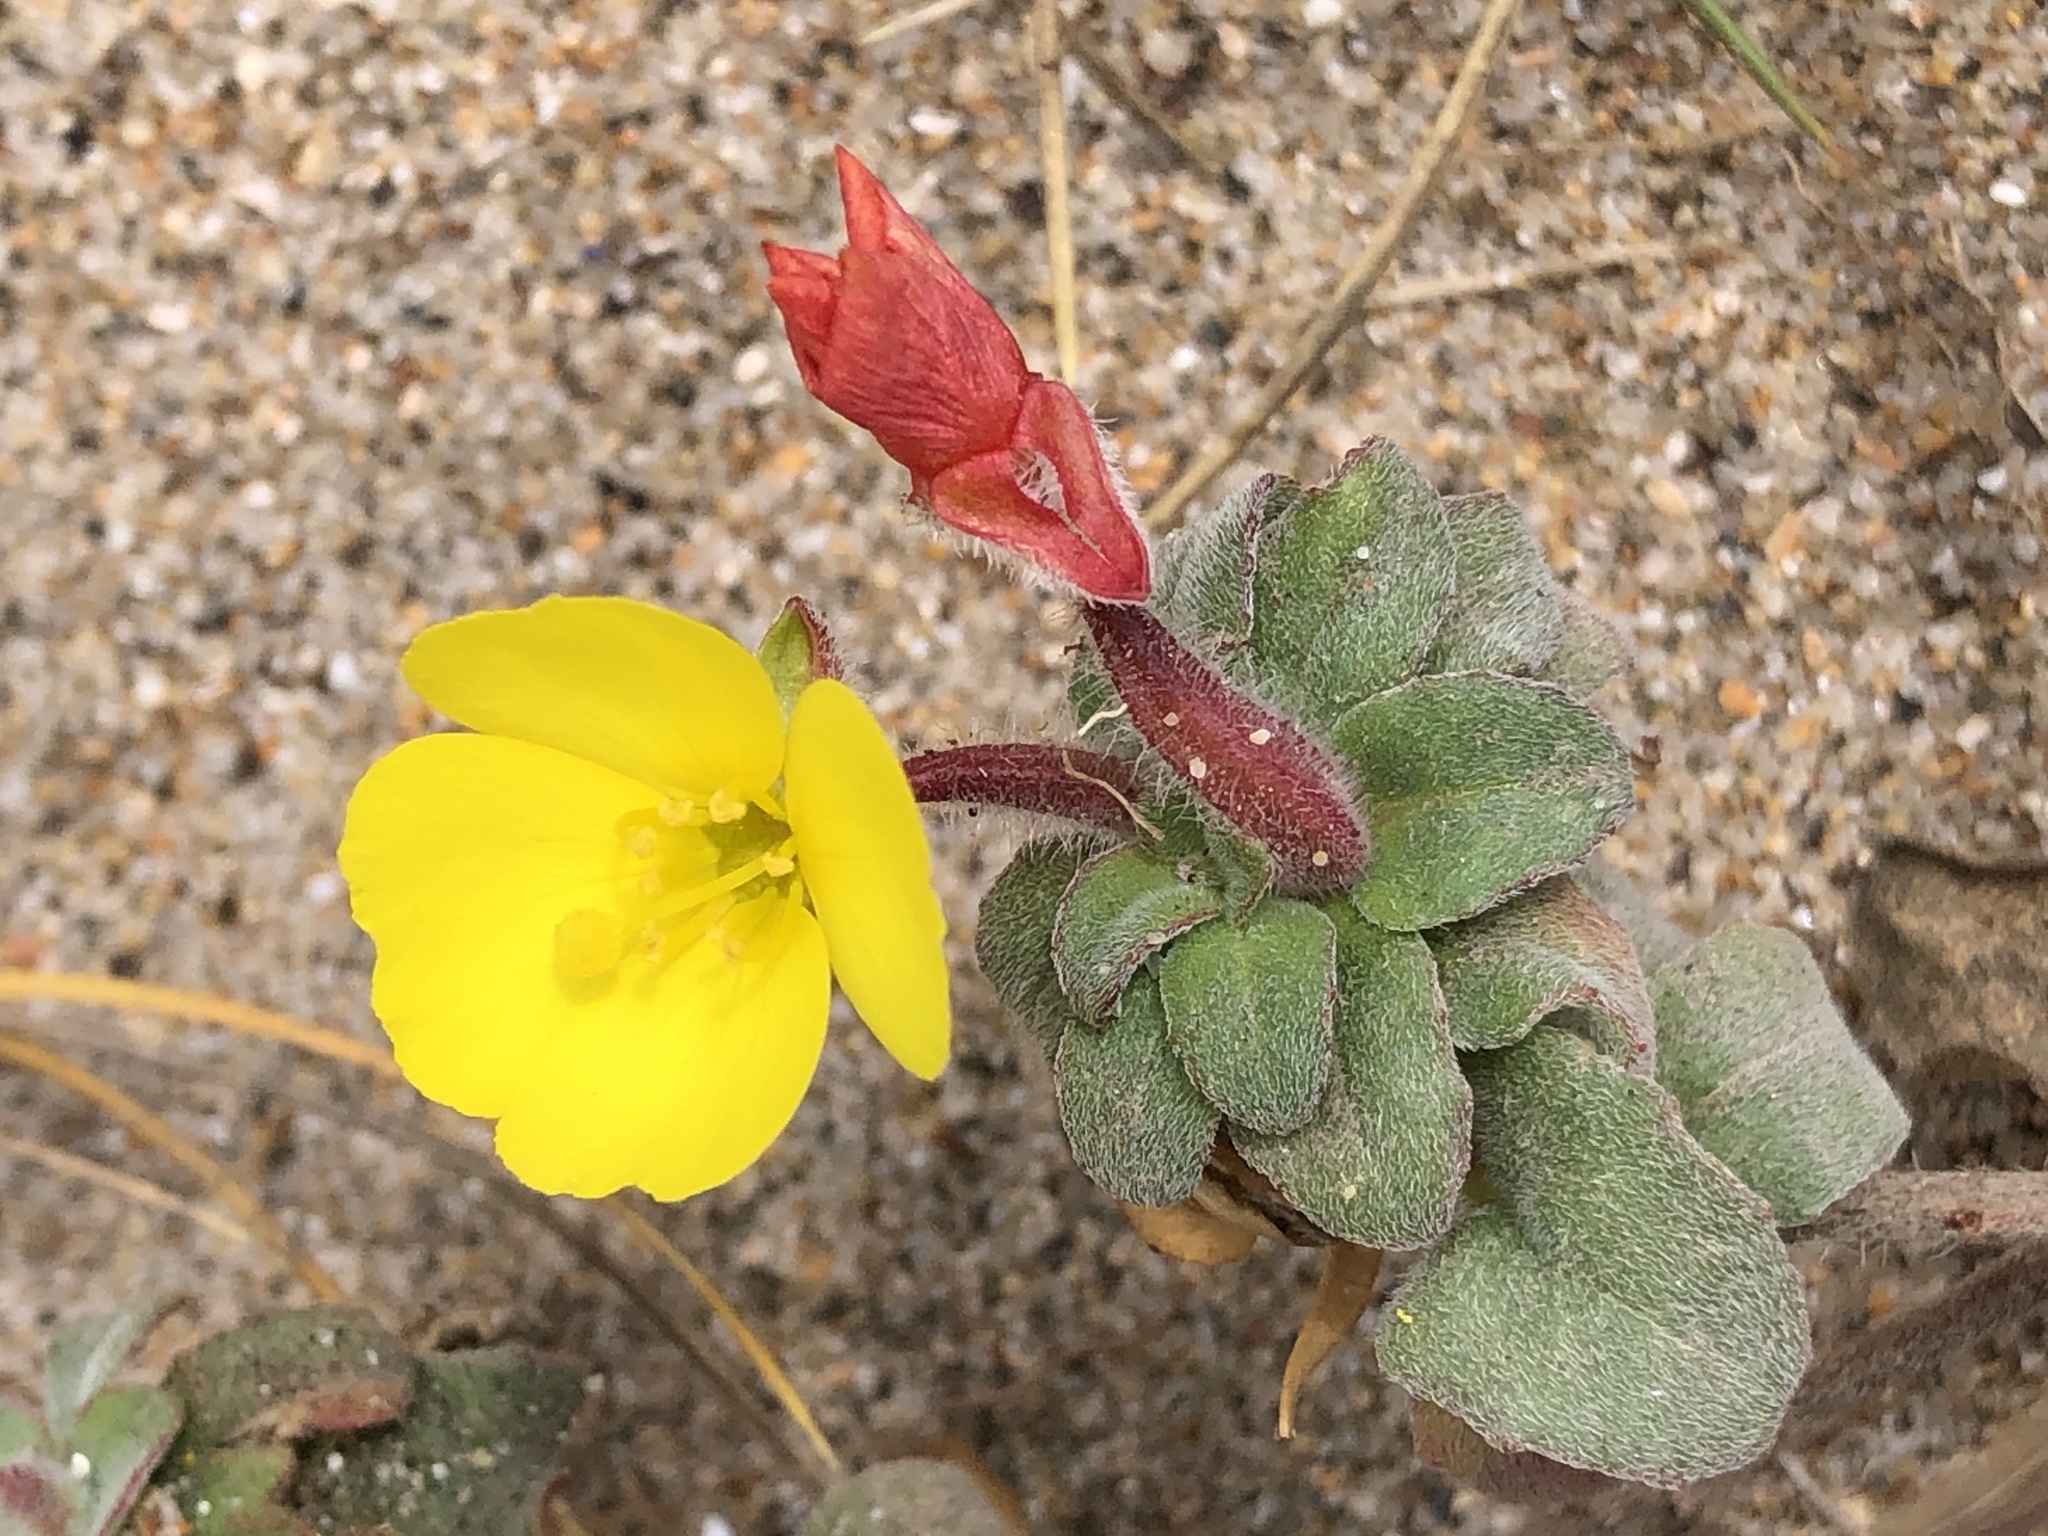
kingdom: Plantae
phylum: Tracheophyta
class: Magnoliopsida
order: Myrtales
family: Onagraceae
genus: Camissoniopsis
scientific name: Camissoniopsis cheiranthifolia
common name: Beach suncup
